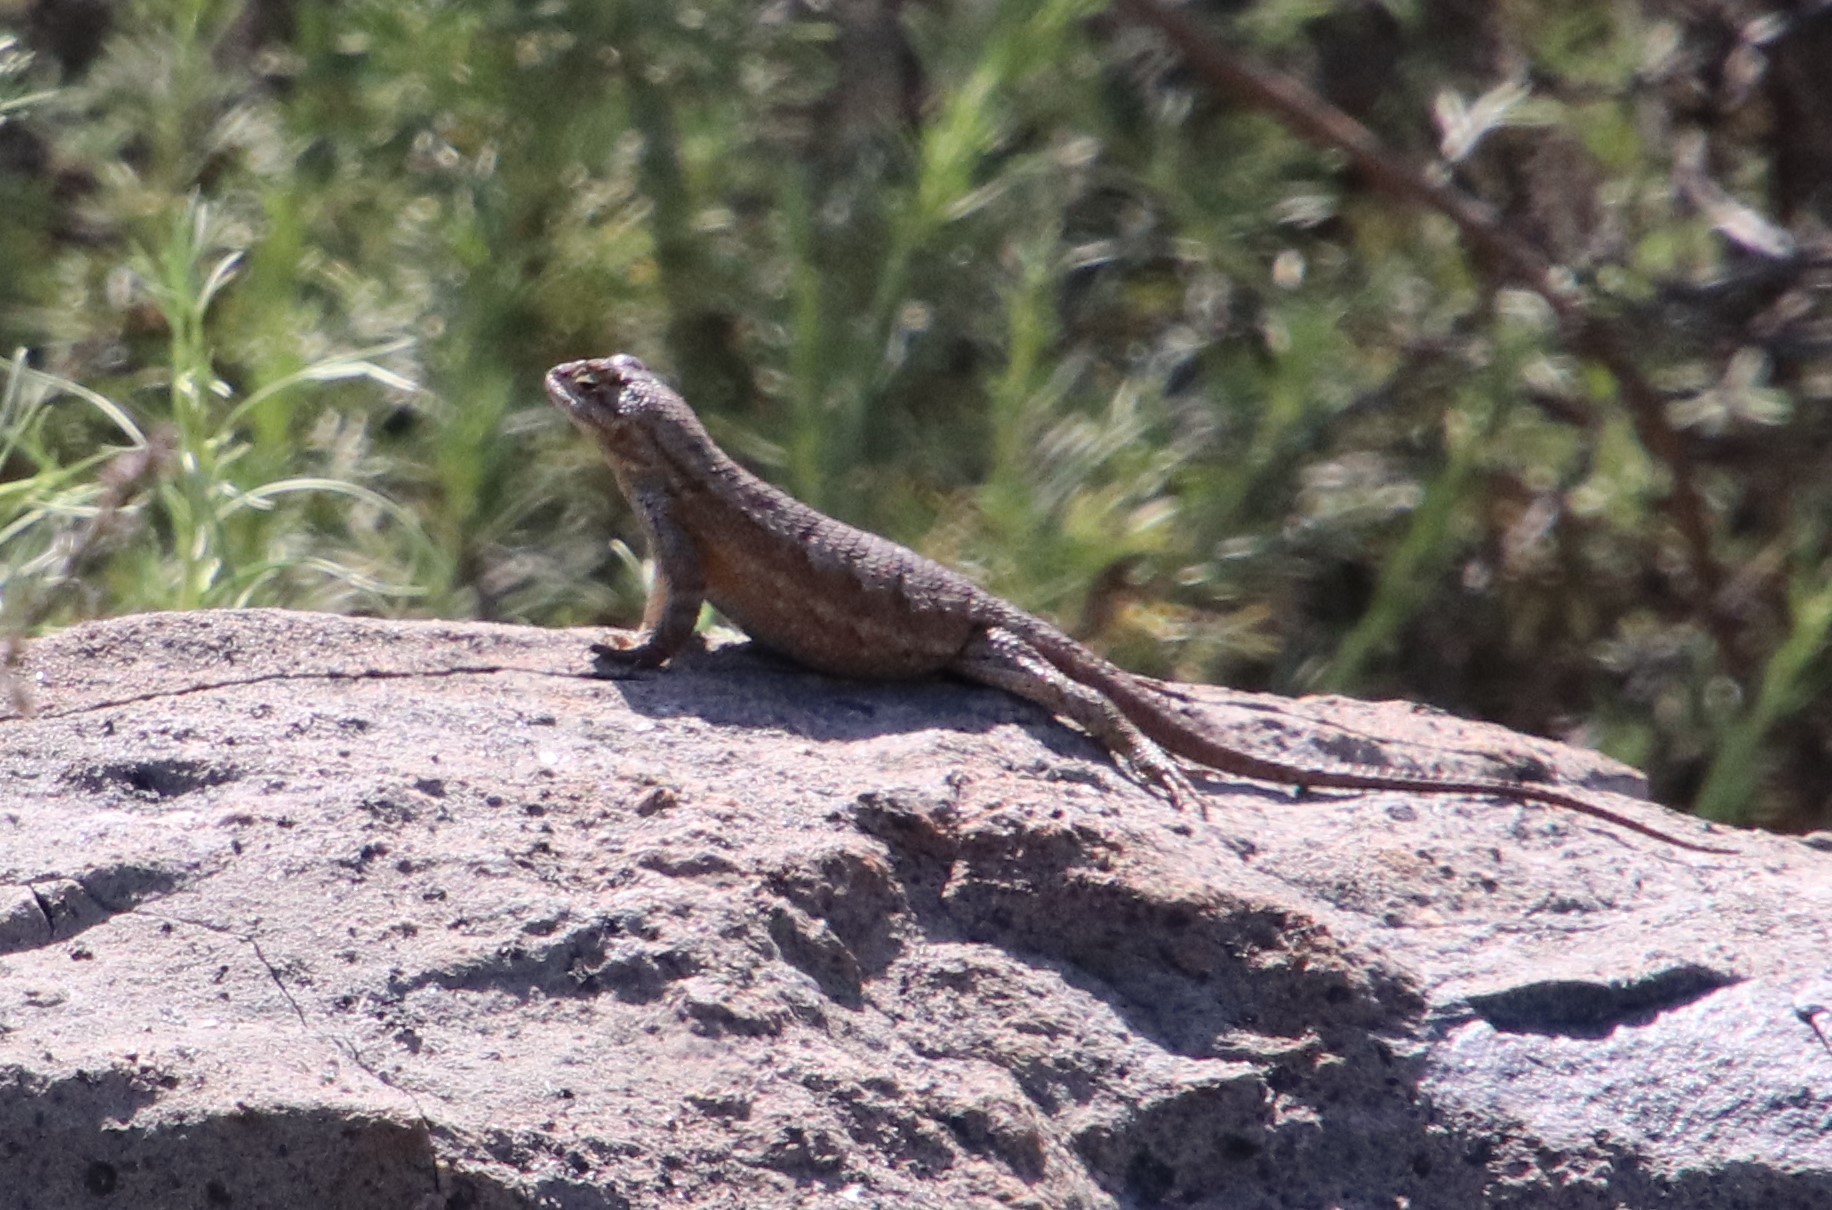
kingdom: Animalia
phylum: Chordata
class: Squamata
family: Phrynosomatidae
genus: Sceloporus
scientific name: Sceloporus occidentalis
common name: Western fence lizard
